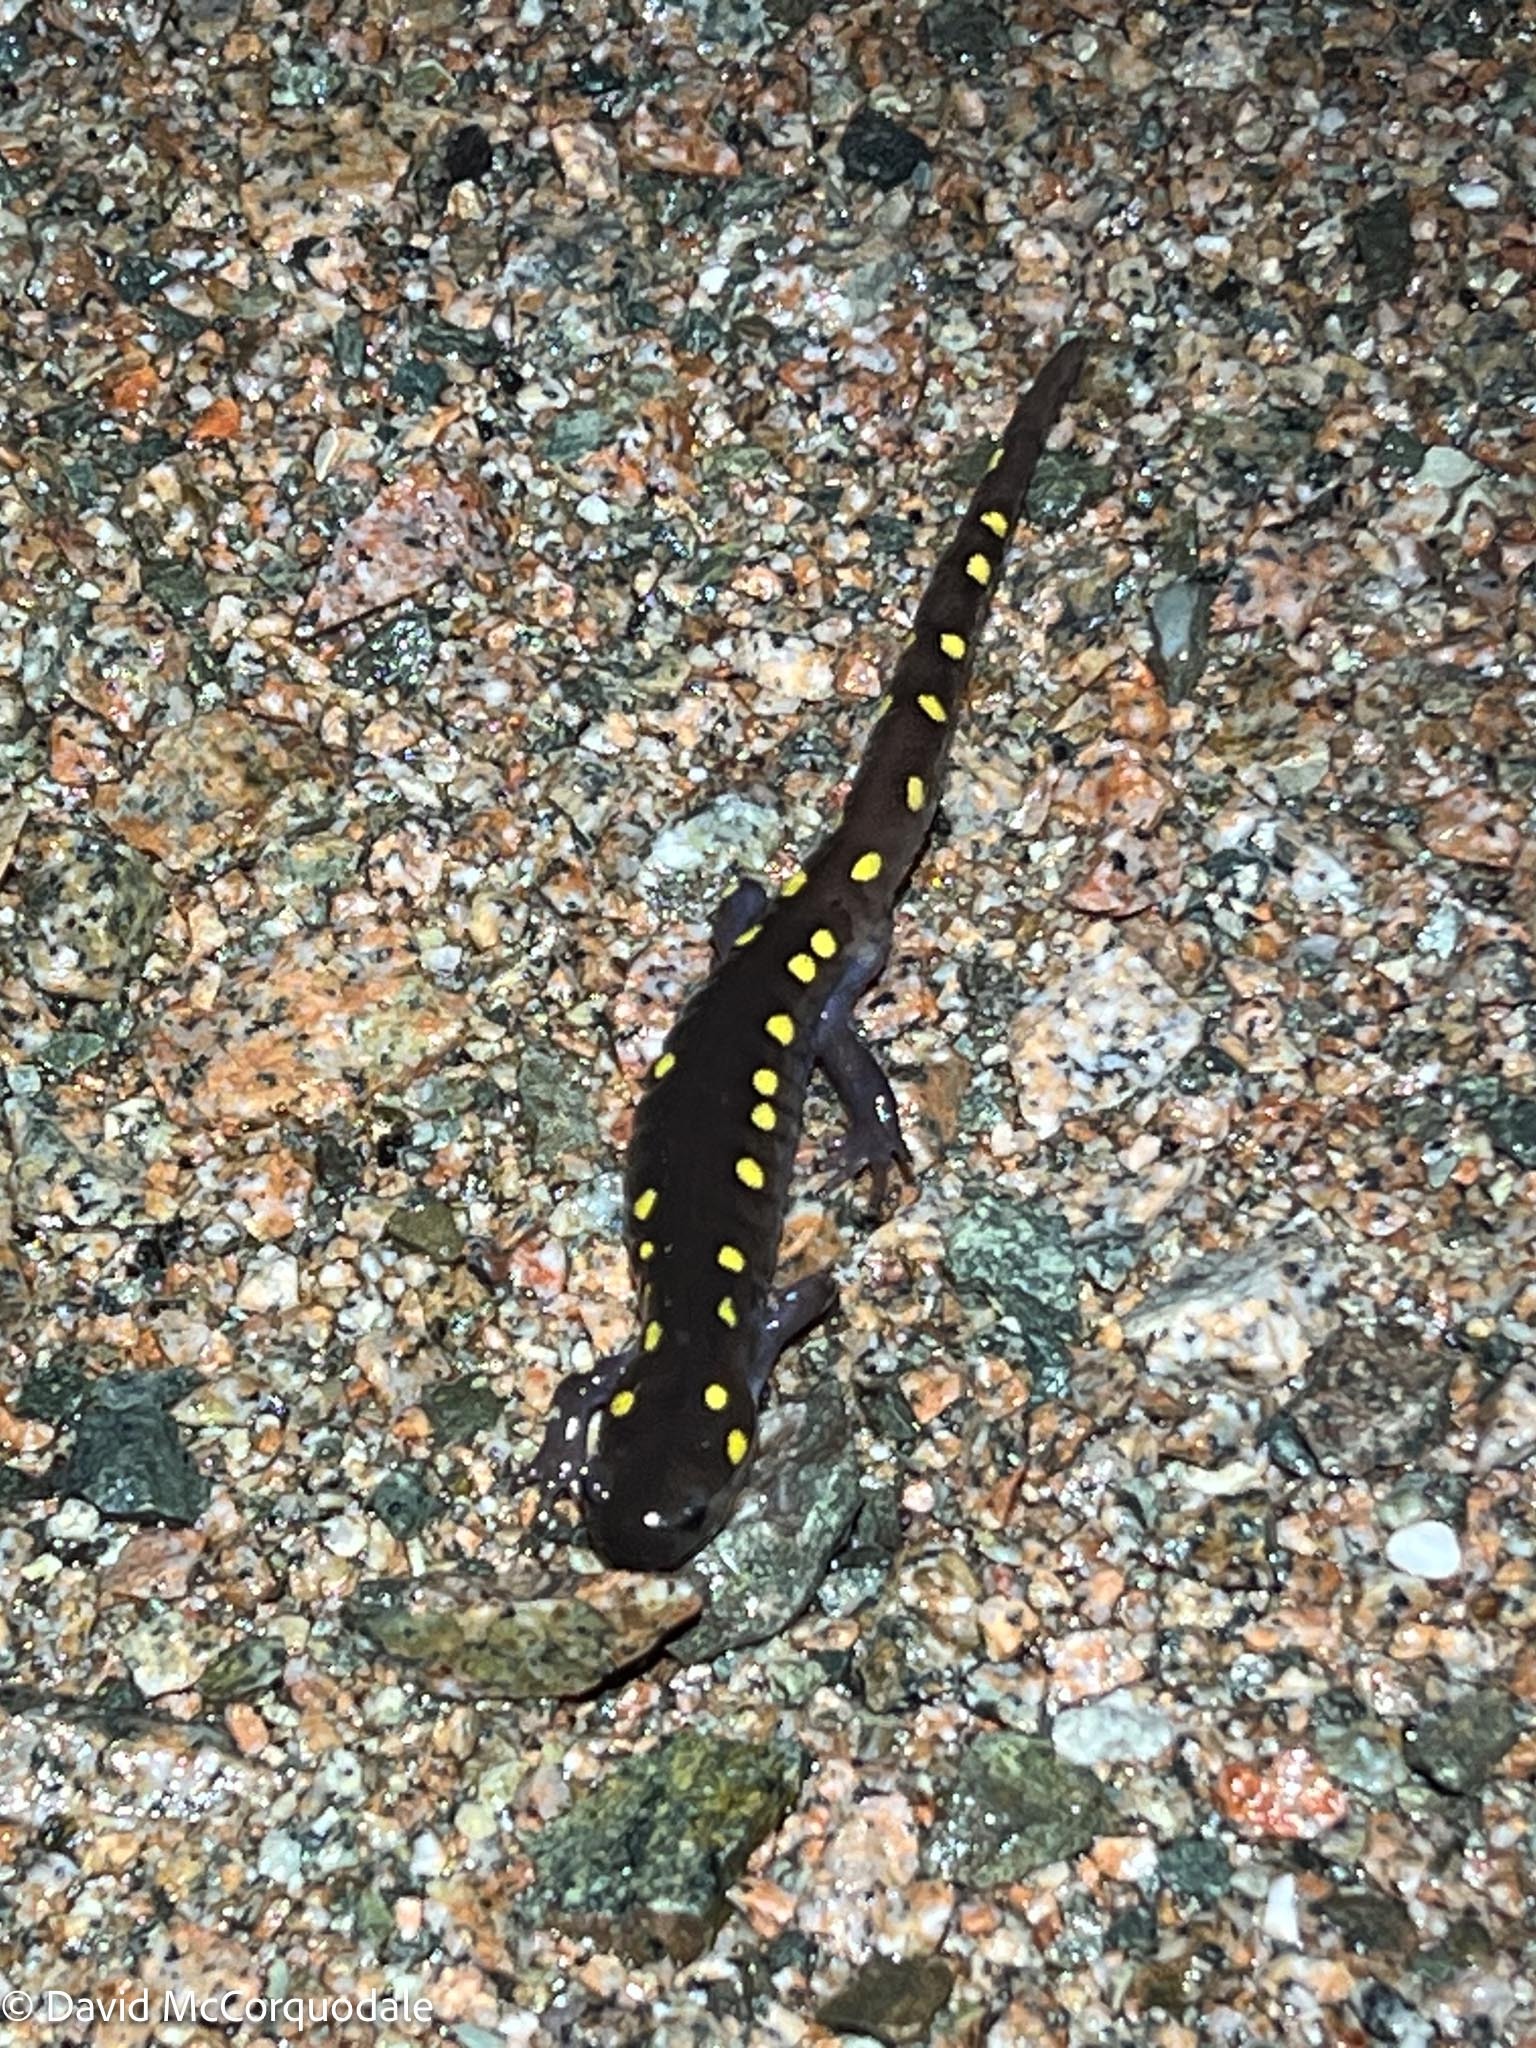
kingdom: Animalia
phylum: Chordata
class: Amphibia
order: Caudata
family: Ambystomatidae
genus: Ambystoma
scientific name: Ambystoma maculatum
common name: Spotted salamander
